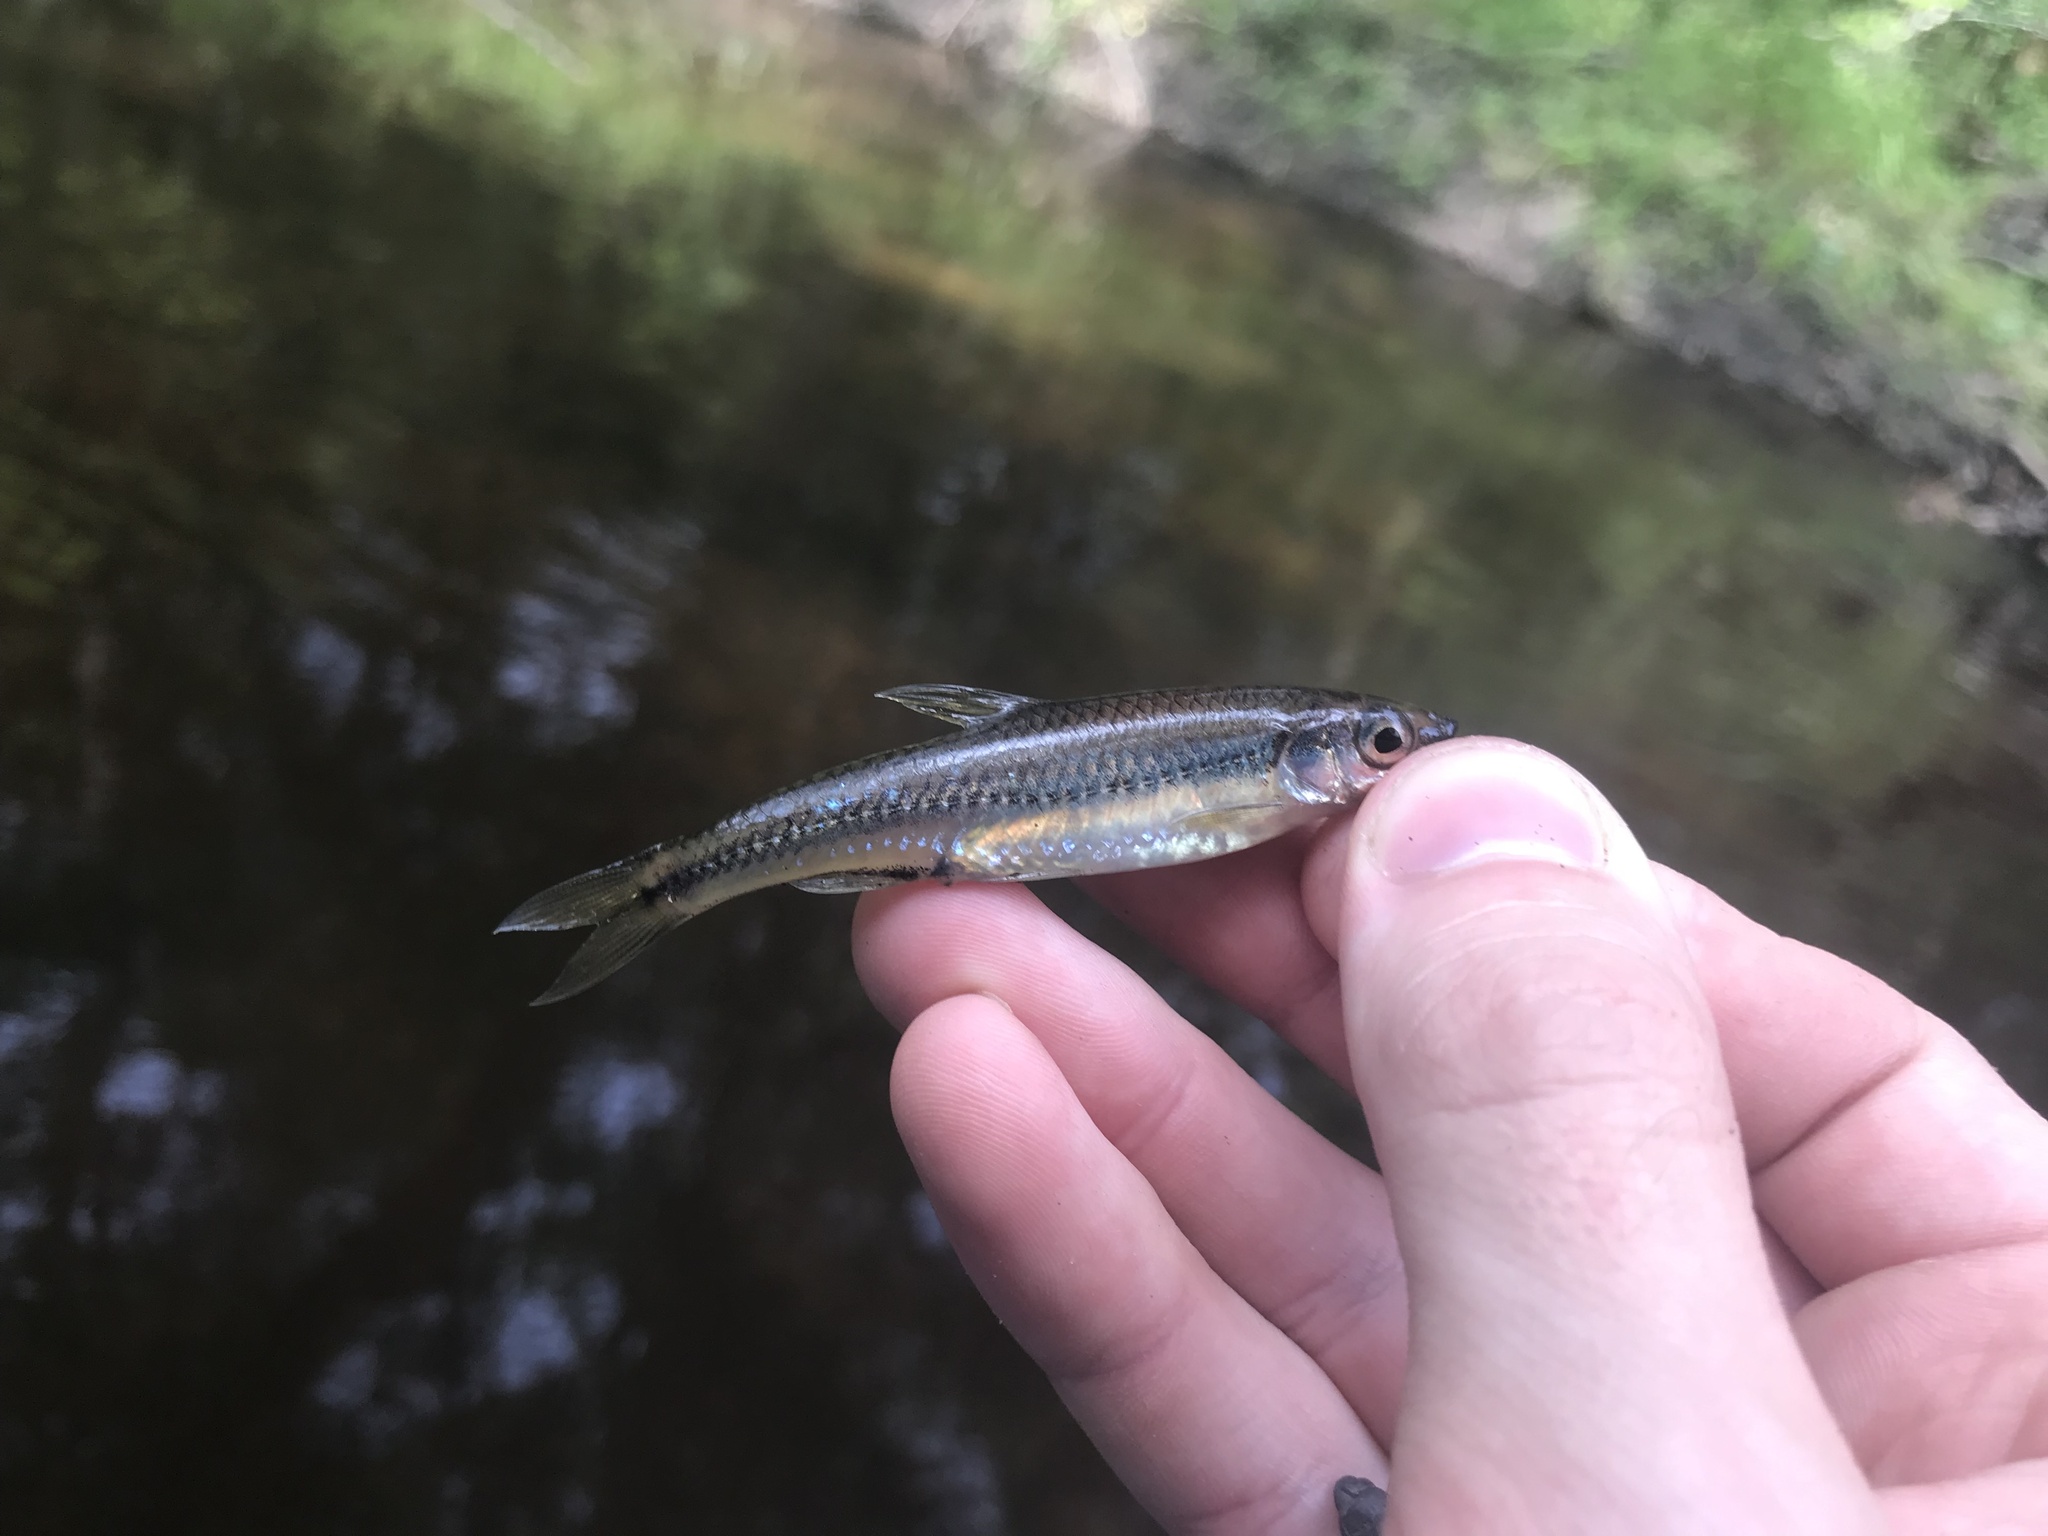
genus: Alburnops
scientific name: Alburnops
